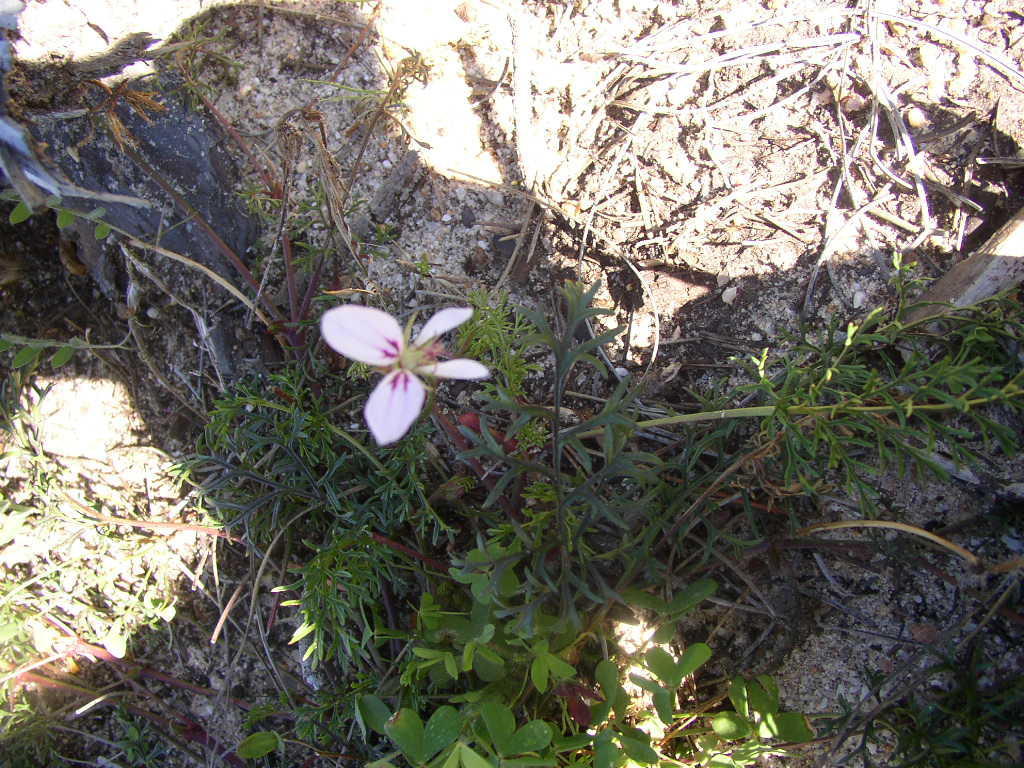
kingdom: Plantae
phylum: Tracheophyta
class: Magnoliopsida
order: Geraniales
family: Geraniaceae
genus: Pelargonium
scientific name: Pelargonium myrrhifolium
